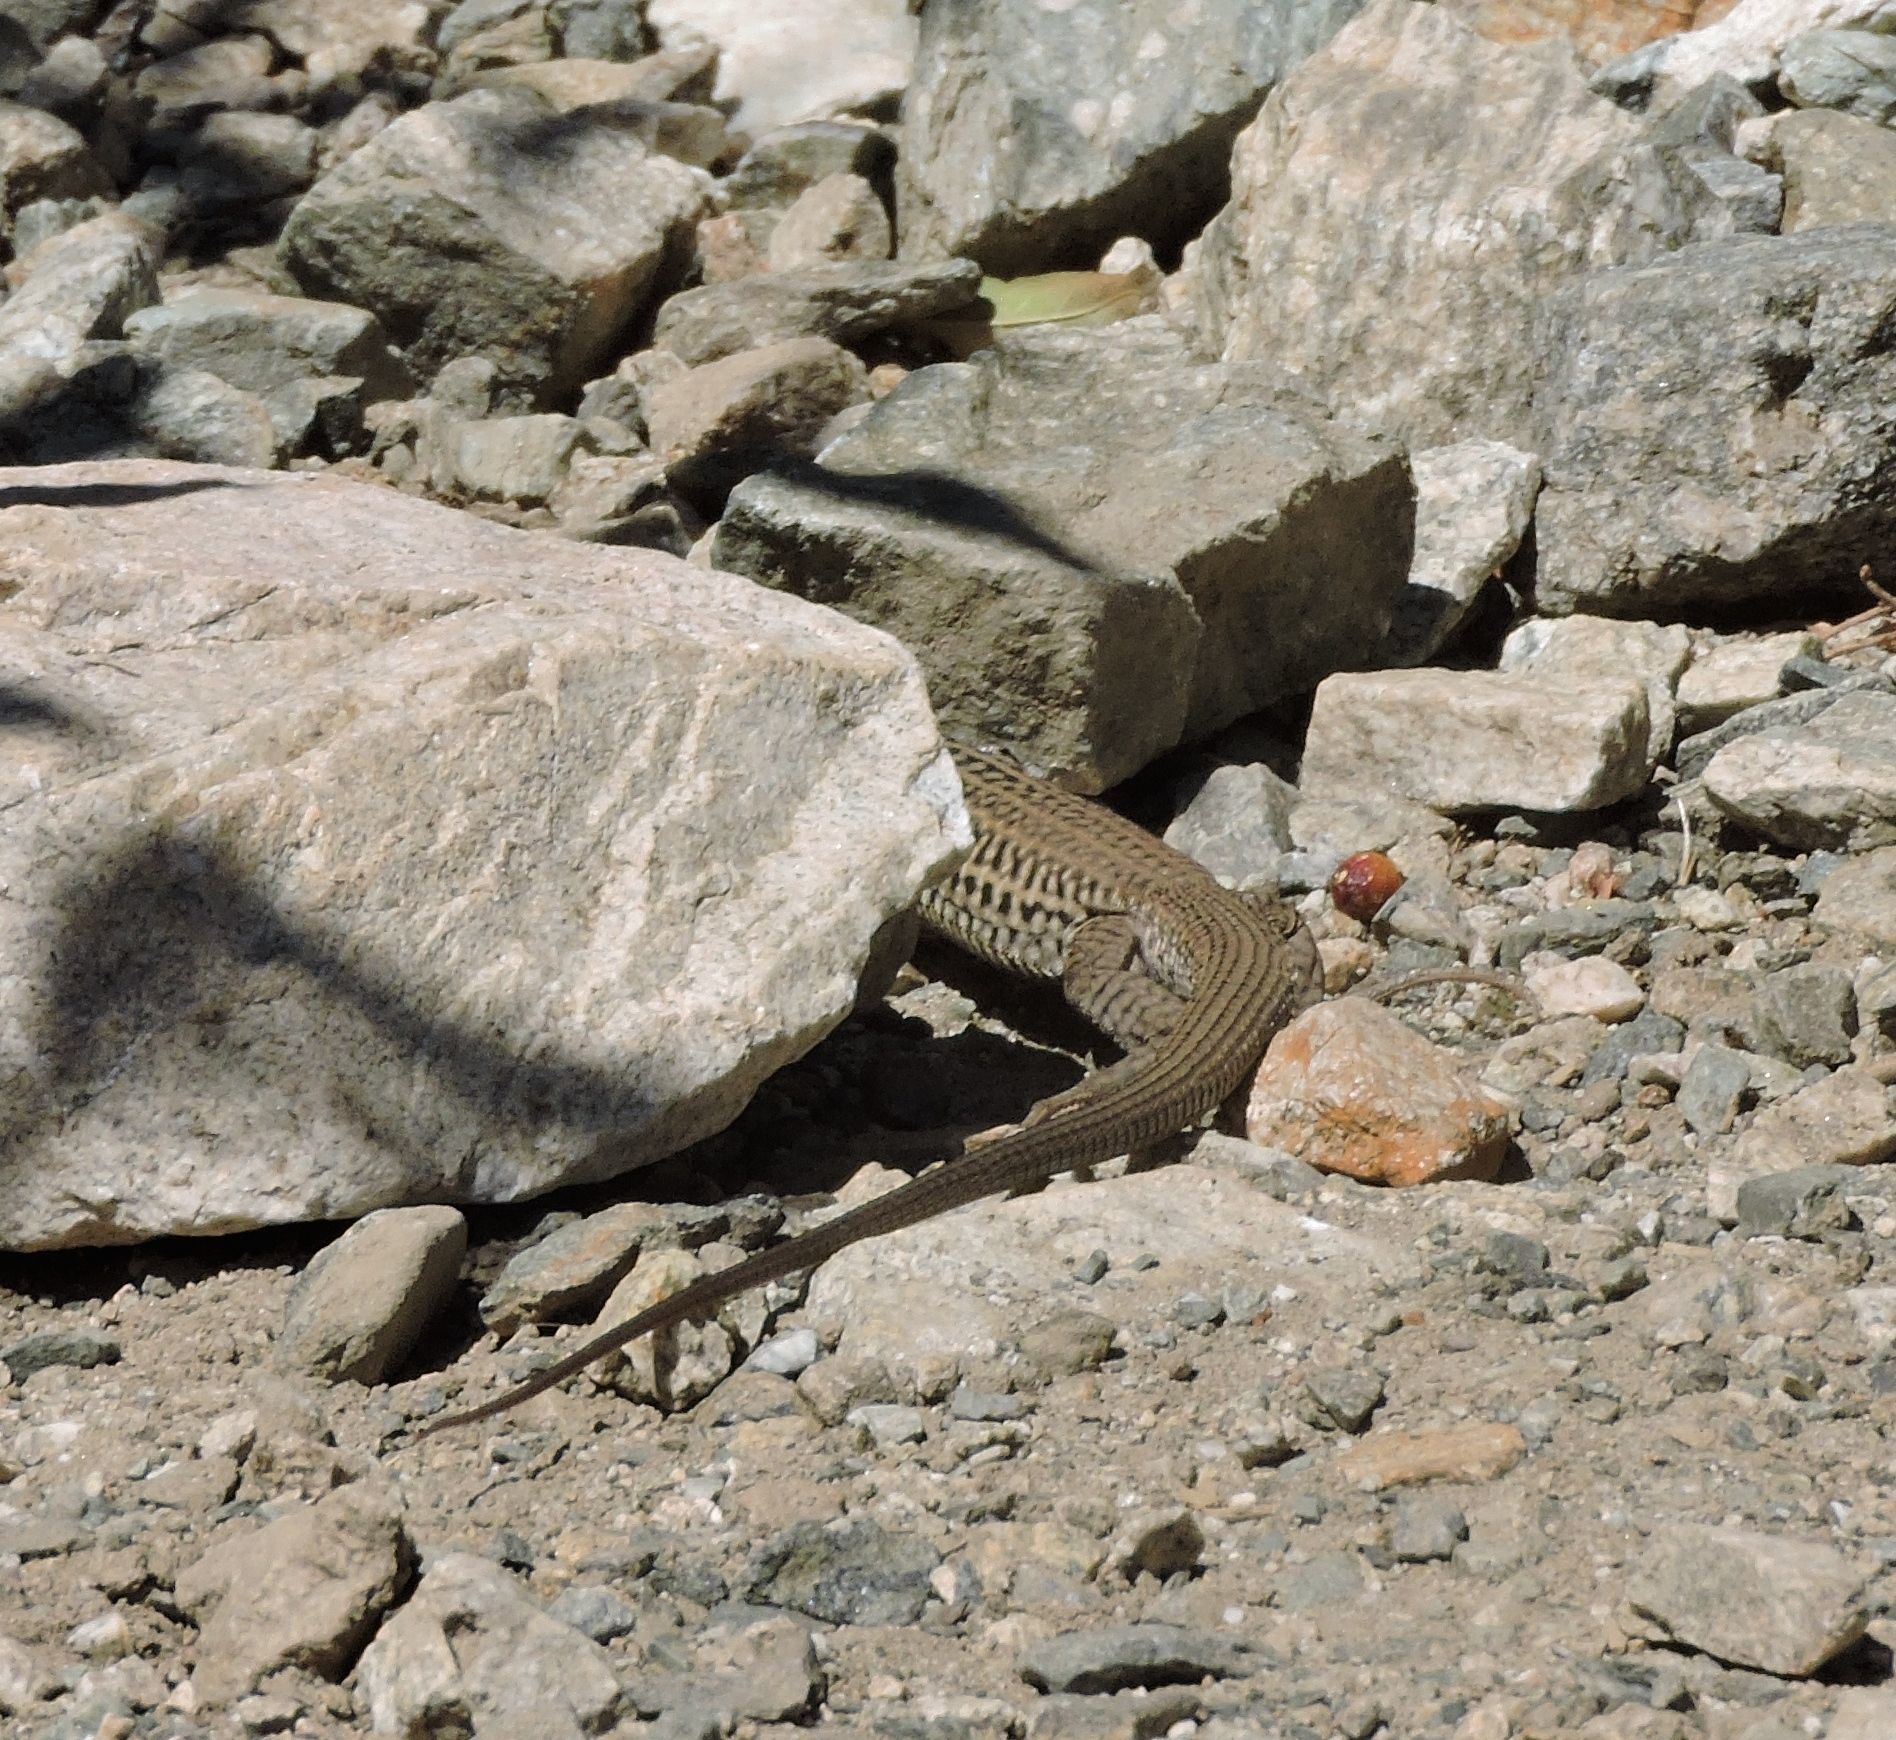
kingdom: Animalia
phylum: Chordata
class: Squamata
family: Teiidae
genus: Aspidoscelis
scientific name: Aspidoscelis tigris
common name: Tiger whiptail
